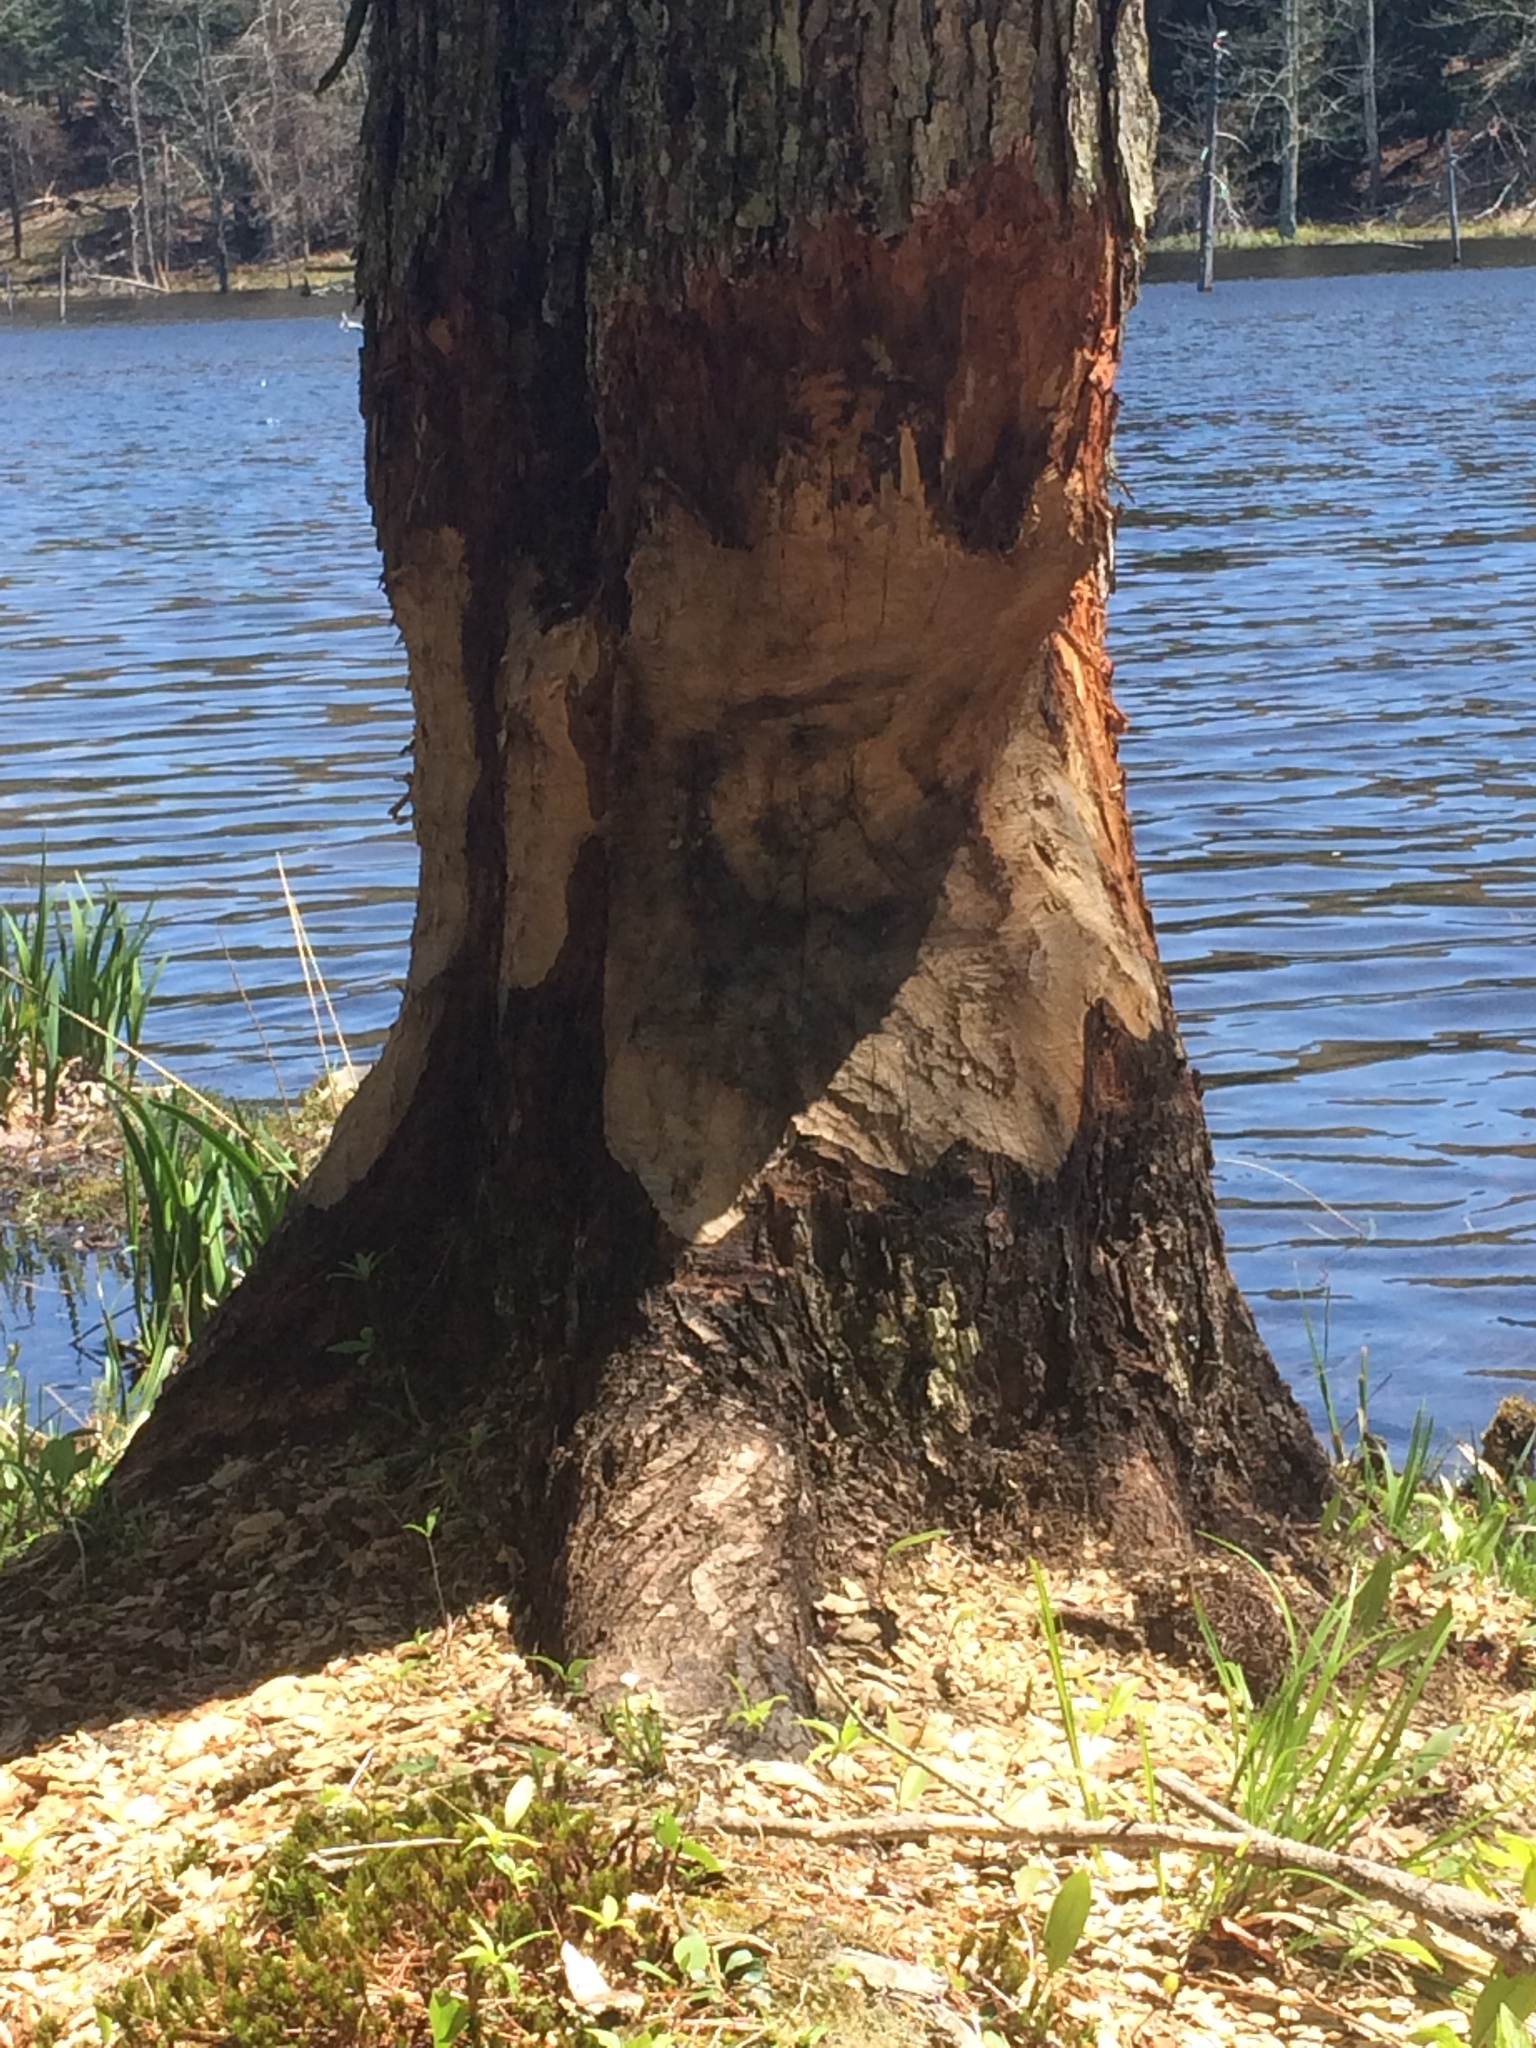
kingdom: Animalia
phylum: Chordata
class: Mammalia
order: Rodentia
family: Castoridae
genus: Castor
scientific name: Castor canadensis
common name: American beaver
